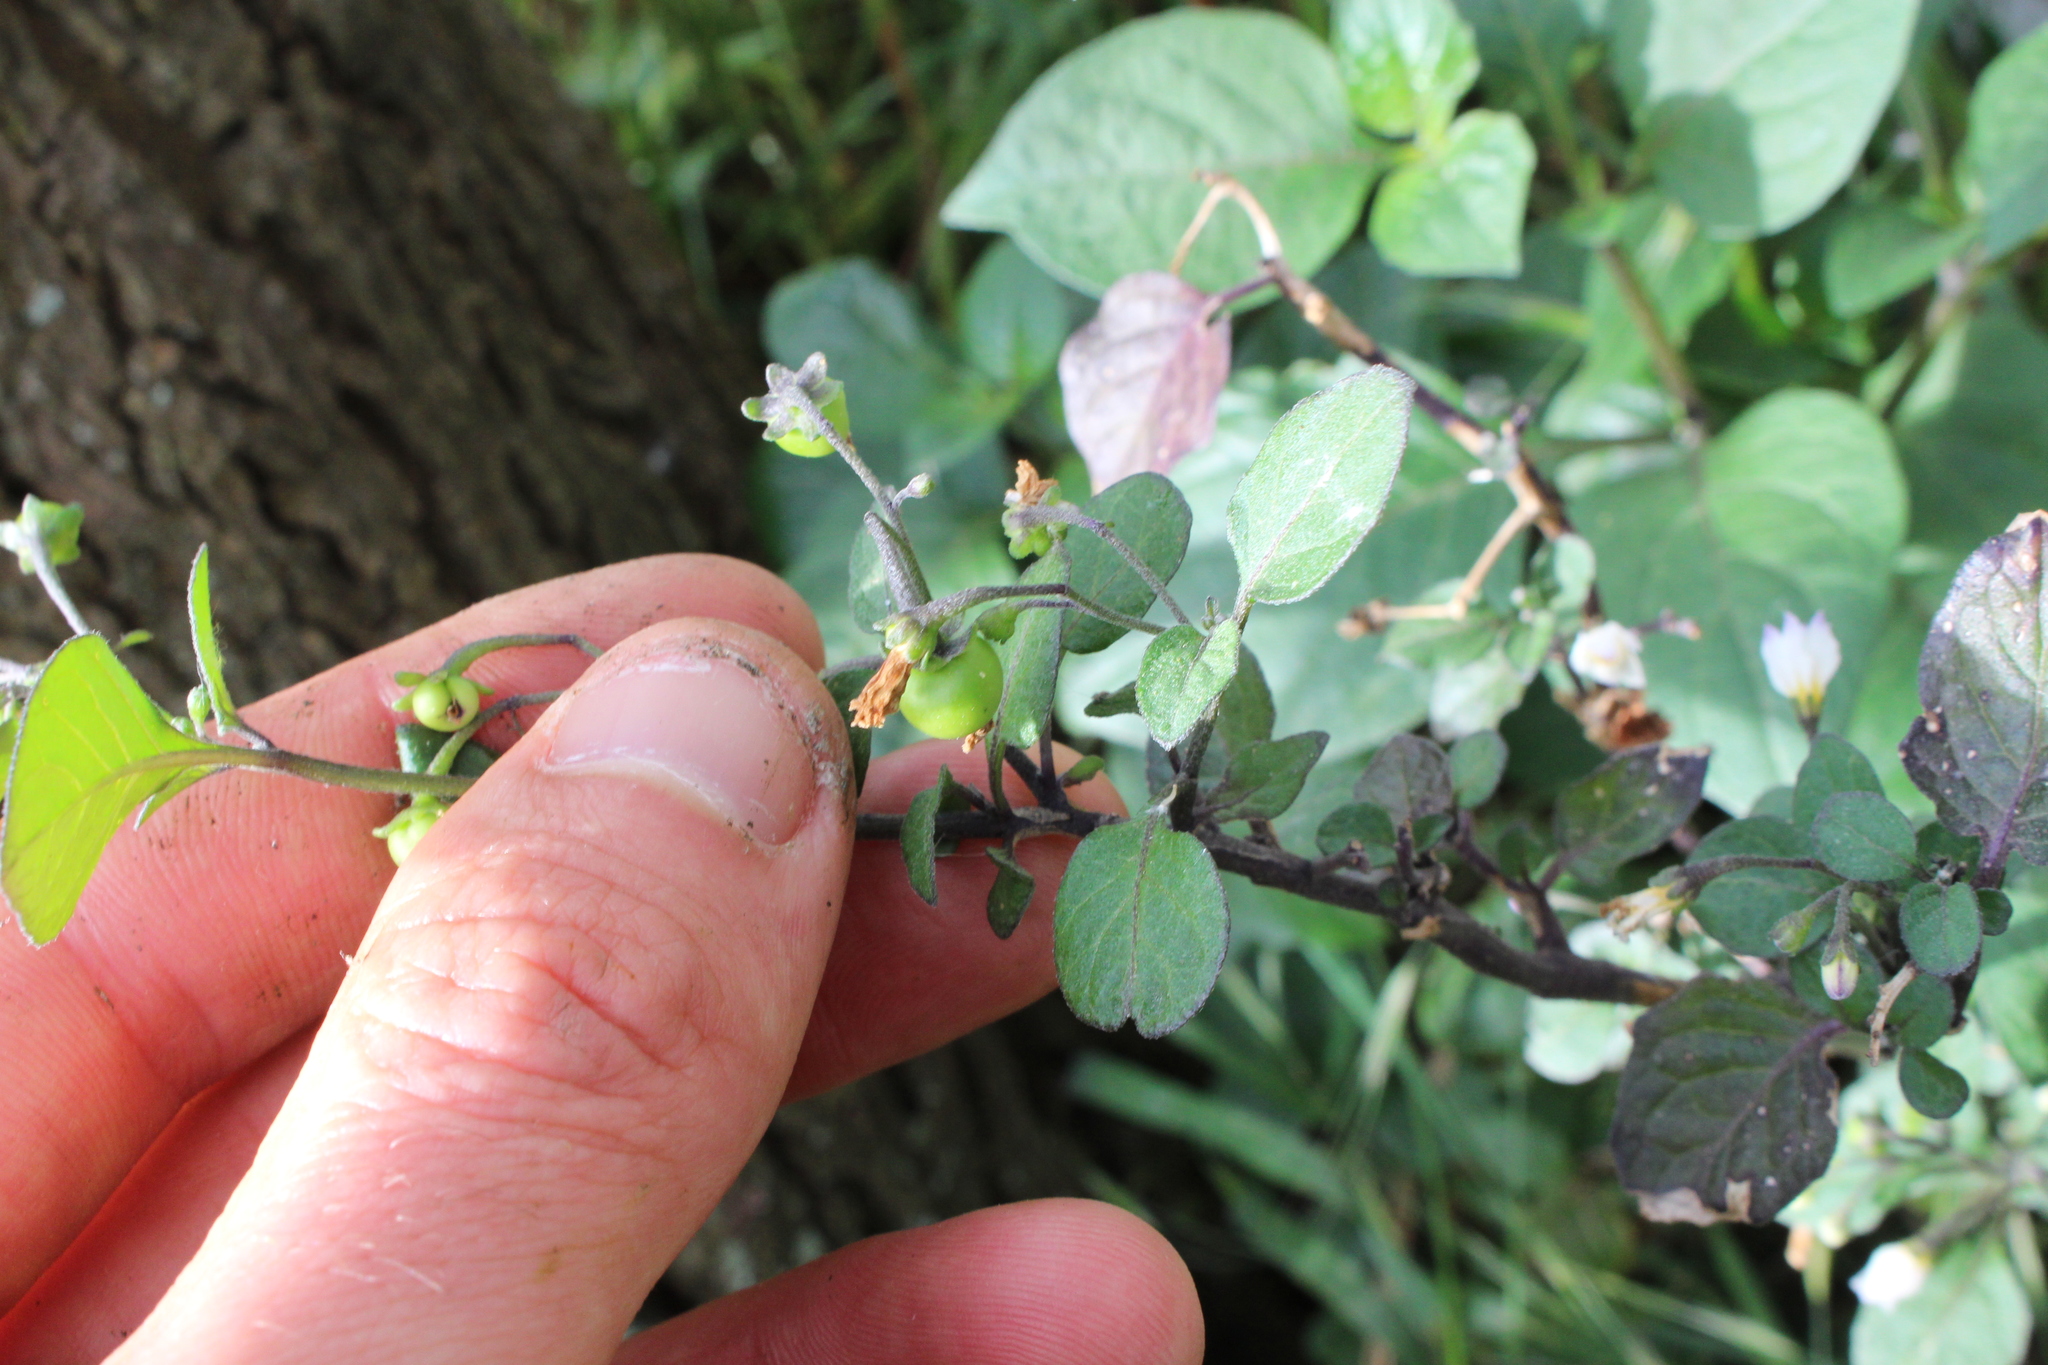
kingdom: Plantae
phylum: Tracheophyta
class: Magnoliopsida
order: Solanales
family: Solanaceae
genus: Solanum
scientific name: Solanum nigrum
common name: Black nightshade
